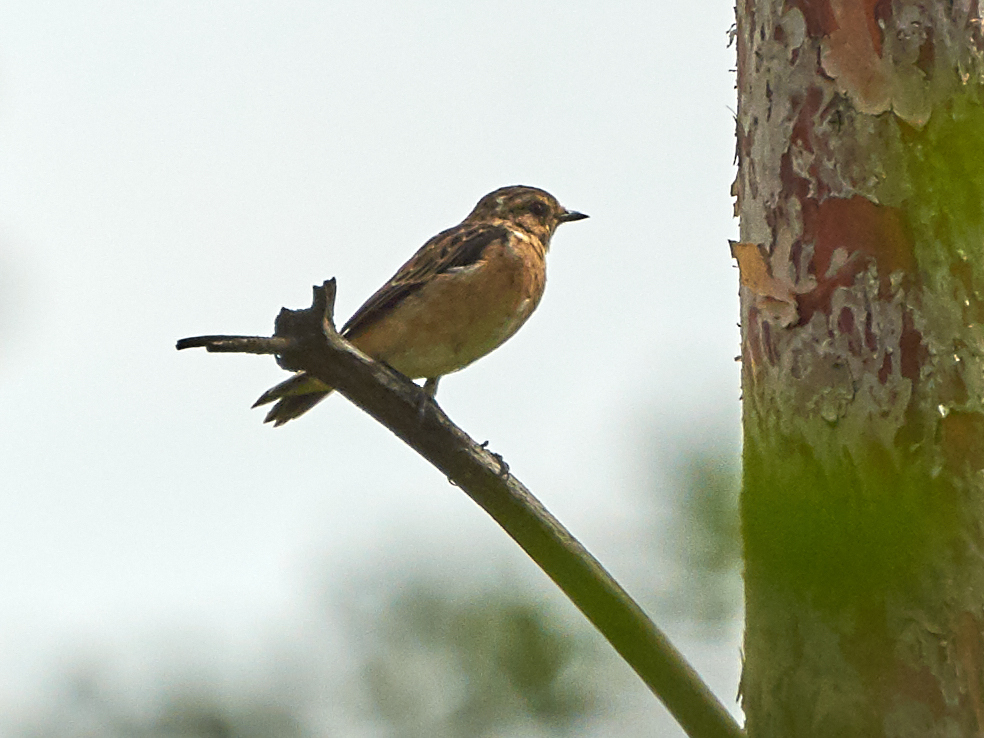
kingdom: Animalia
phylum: Chordata
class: Aves
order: Passeriformes
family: Muscicapidae
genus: Saxicola
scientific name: Saxicola rubetra
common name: Whinchat
